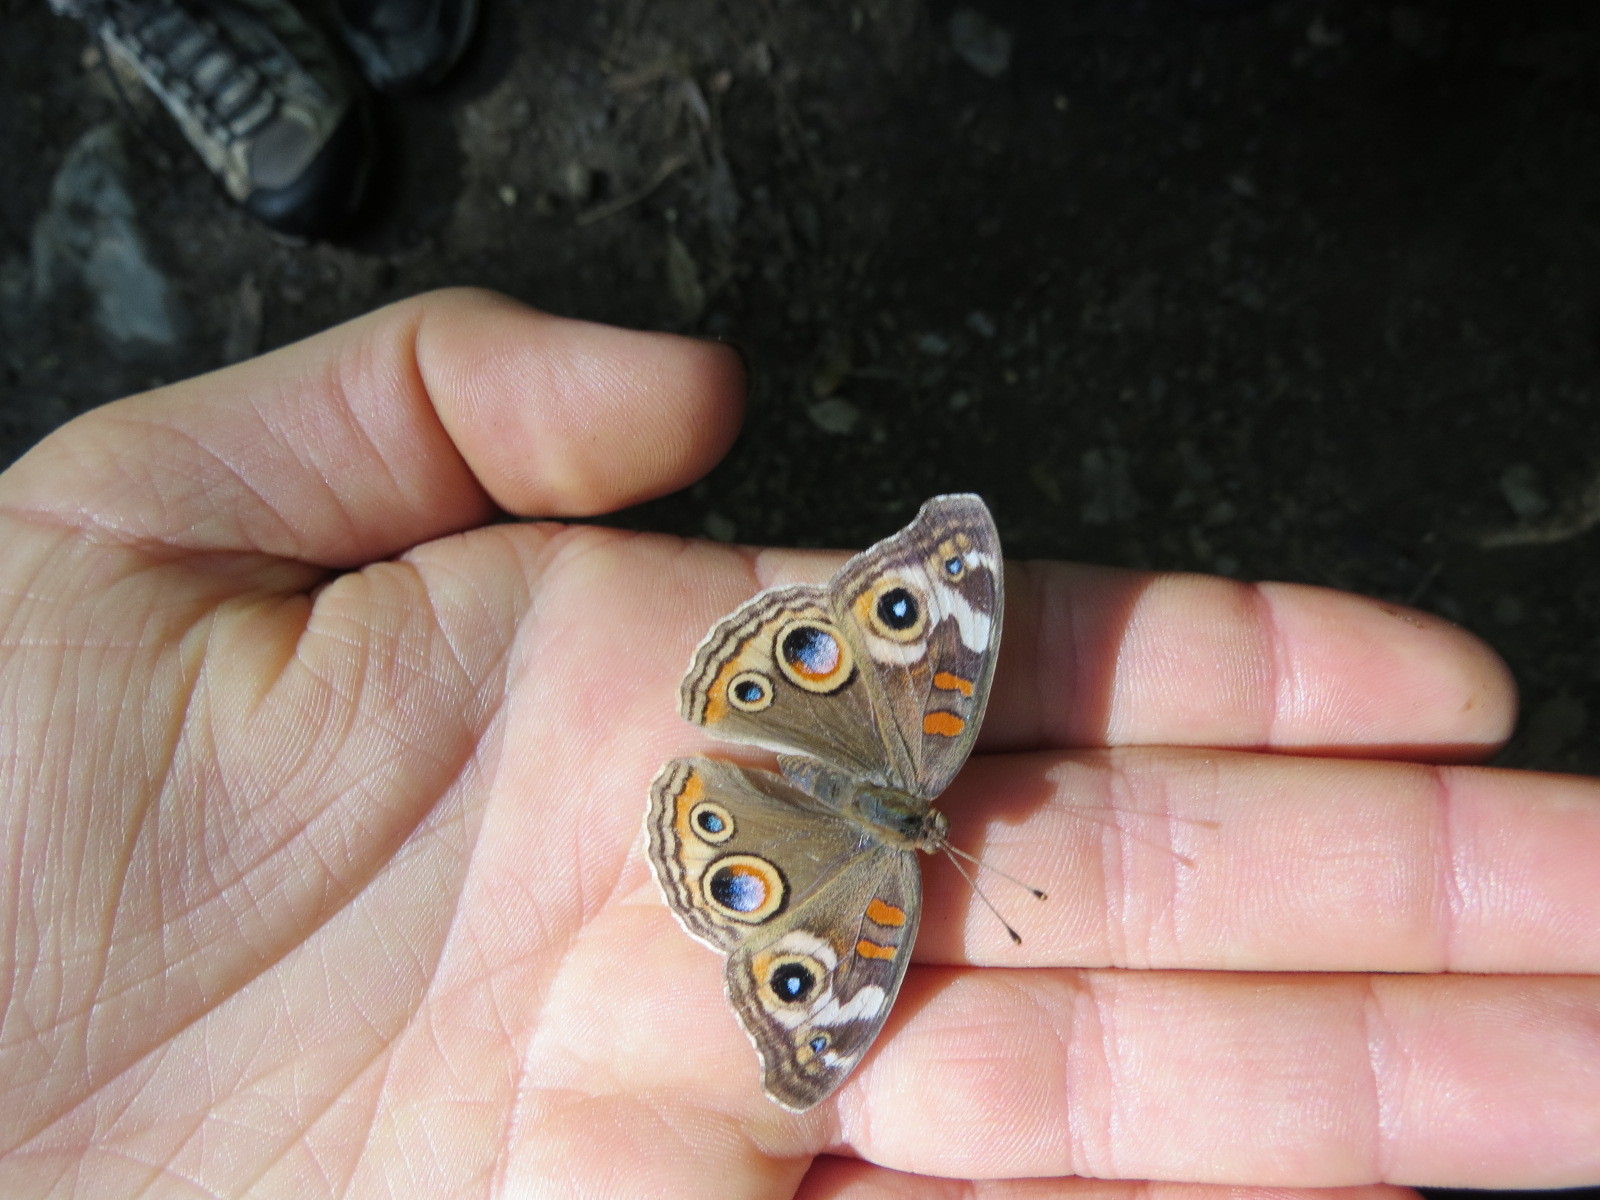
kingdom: Animalia
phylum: Arthropoda
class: Insecta
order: Lepidoptera
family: Nymphalidae
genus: Junonia
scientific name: Junonia grisea
